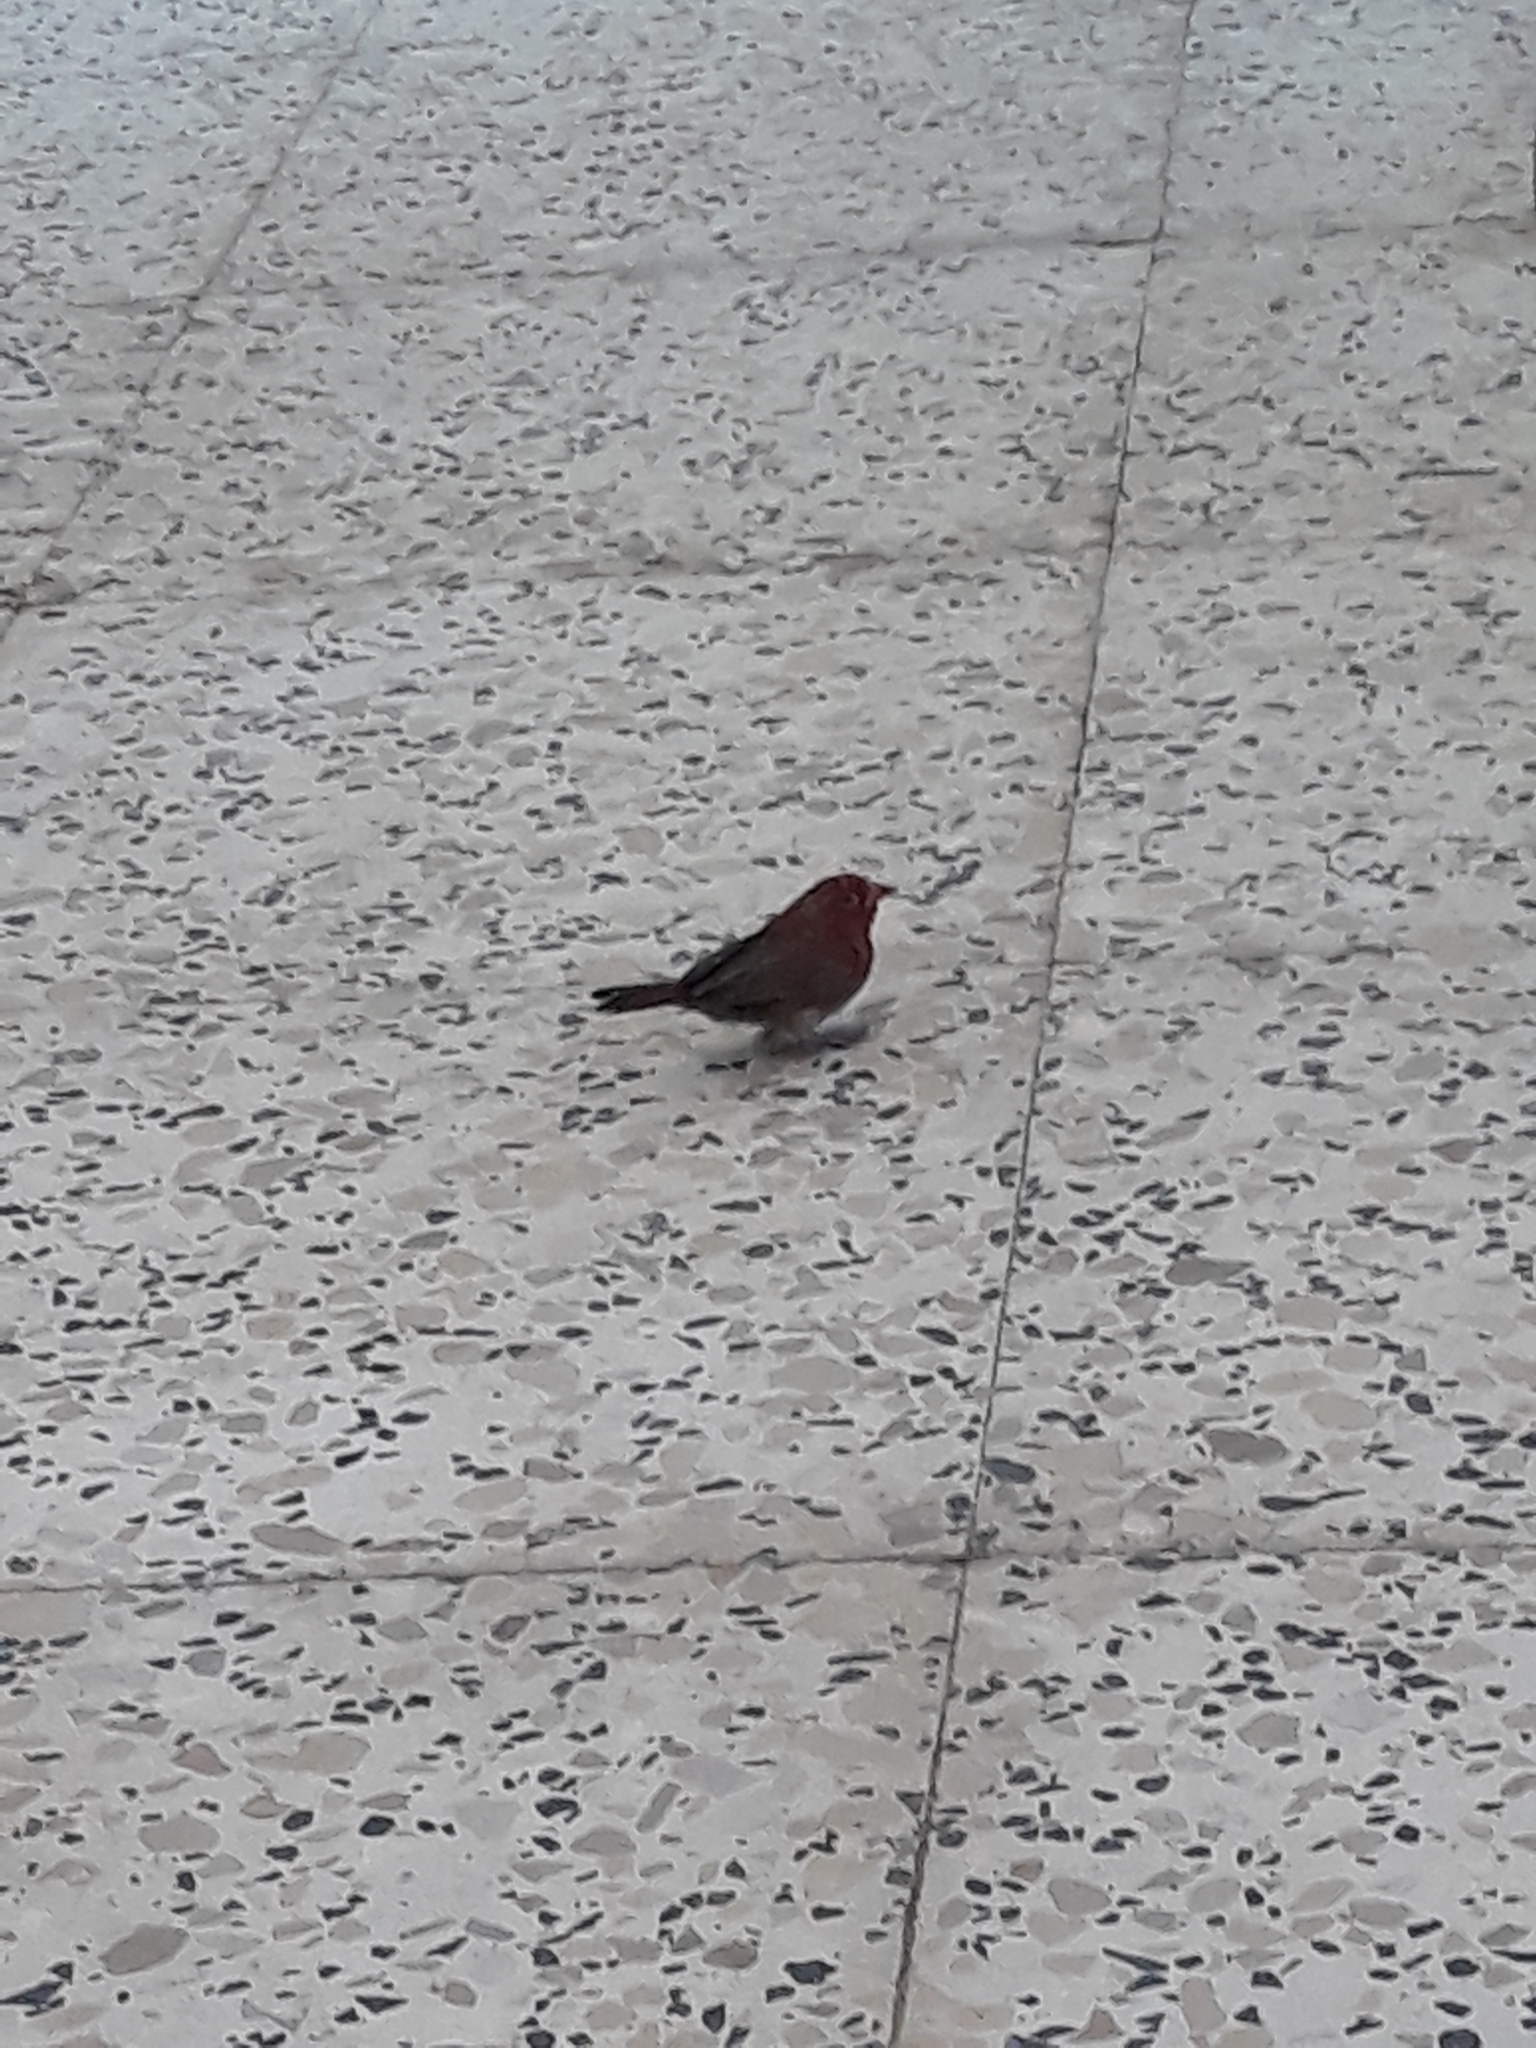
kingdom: Animalia
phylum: Chordata
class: Aves
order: Passeriformes
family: Estrildidae
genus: Lagonosticta
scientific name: Lagonosticta senegala
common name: Red-billed firefinch
